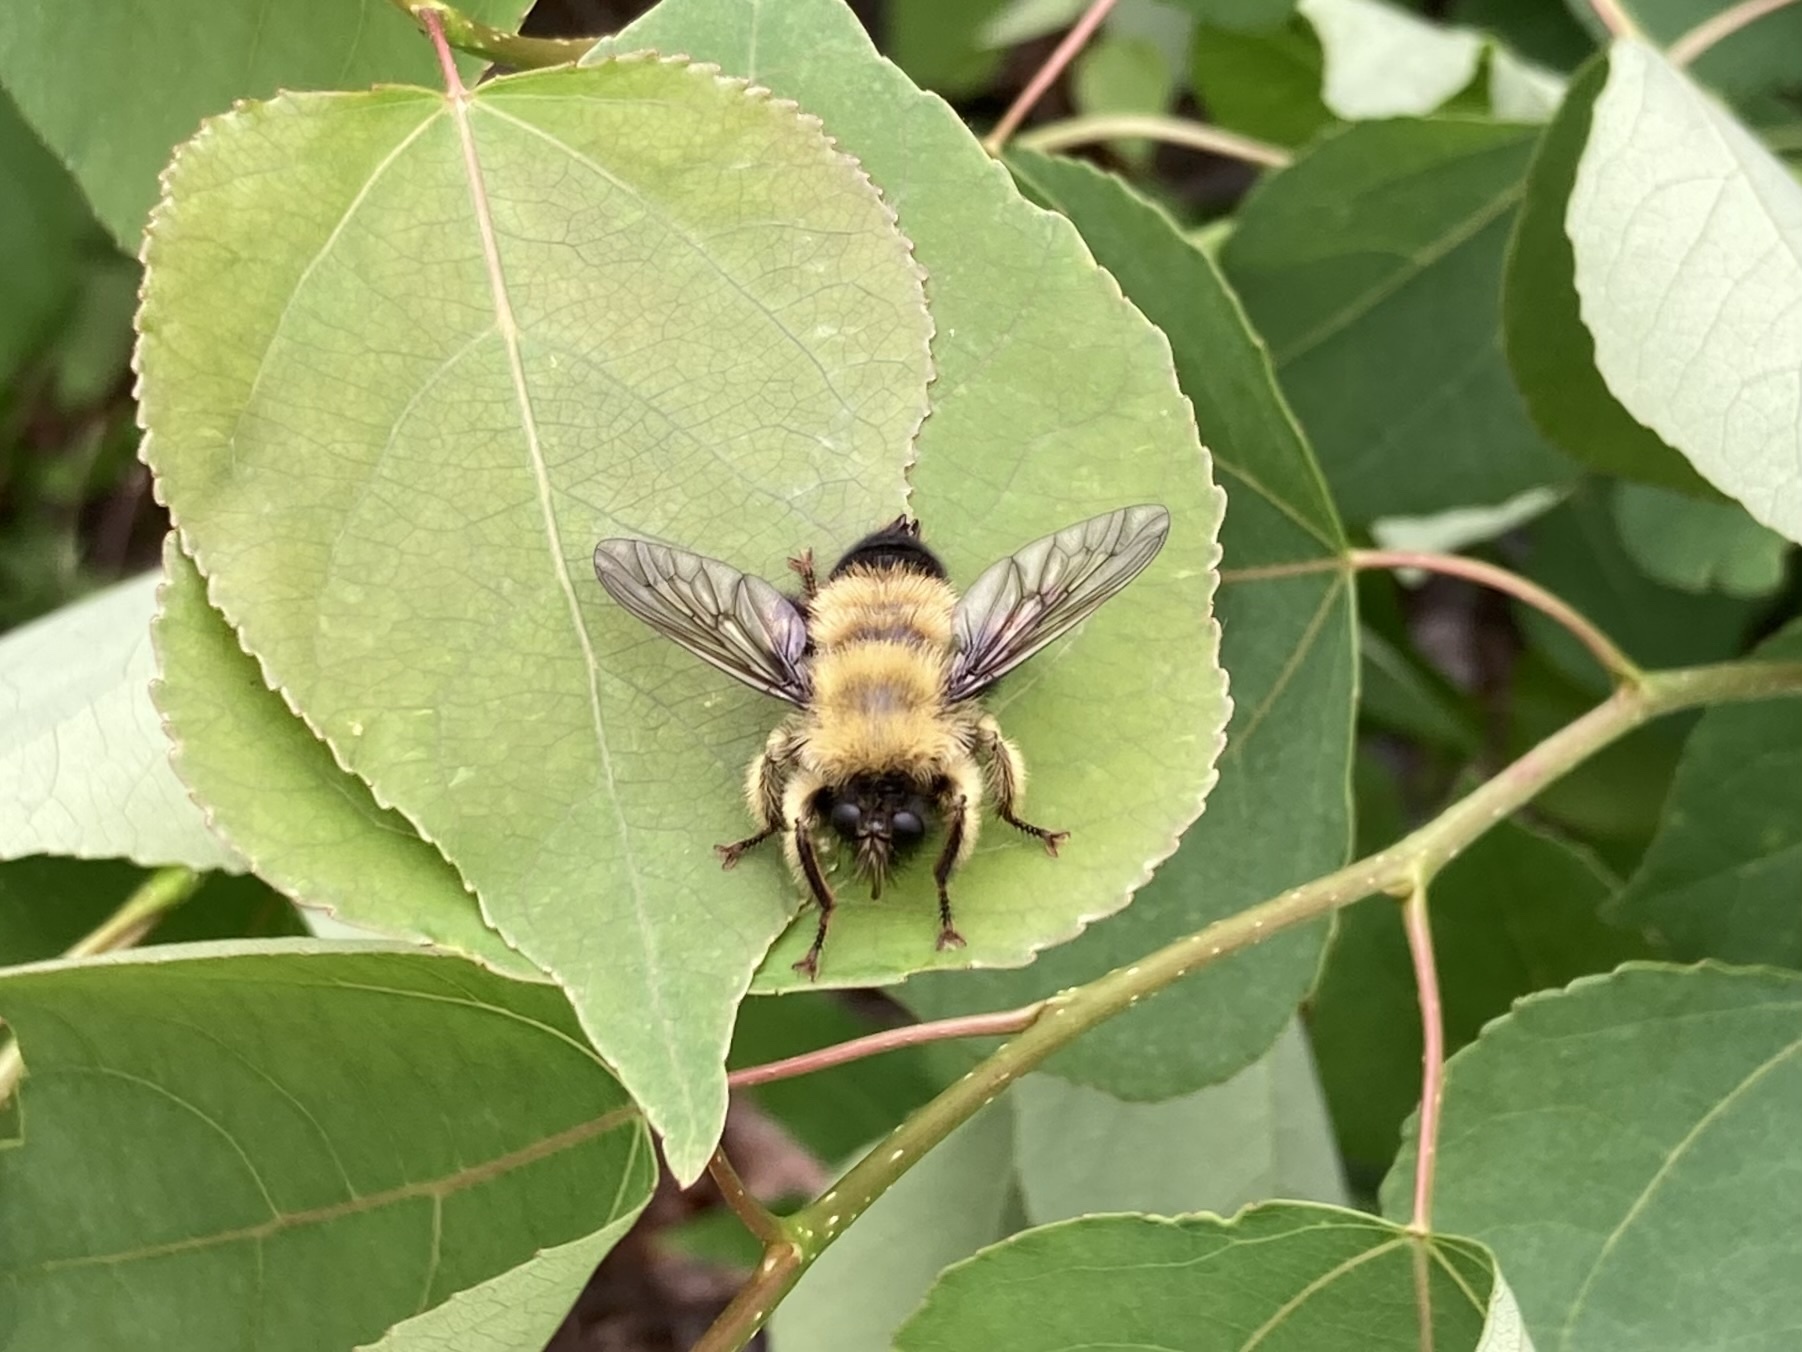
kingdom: Animalia
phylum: Arthropoda
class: Insecta
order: Diptera
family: Asilidae
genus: Laphria
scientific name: Laphria sacrator
